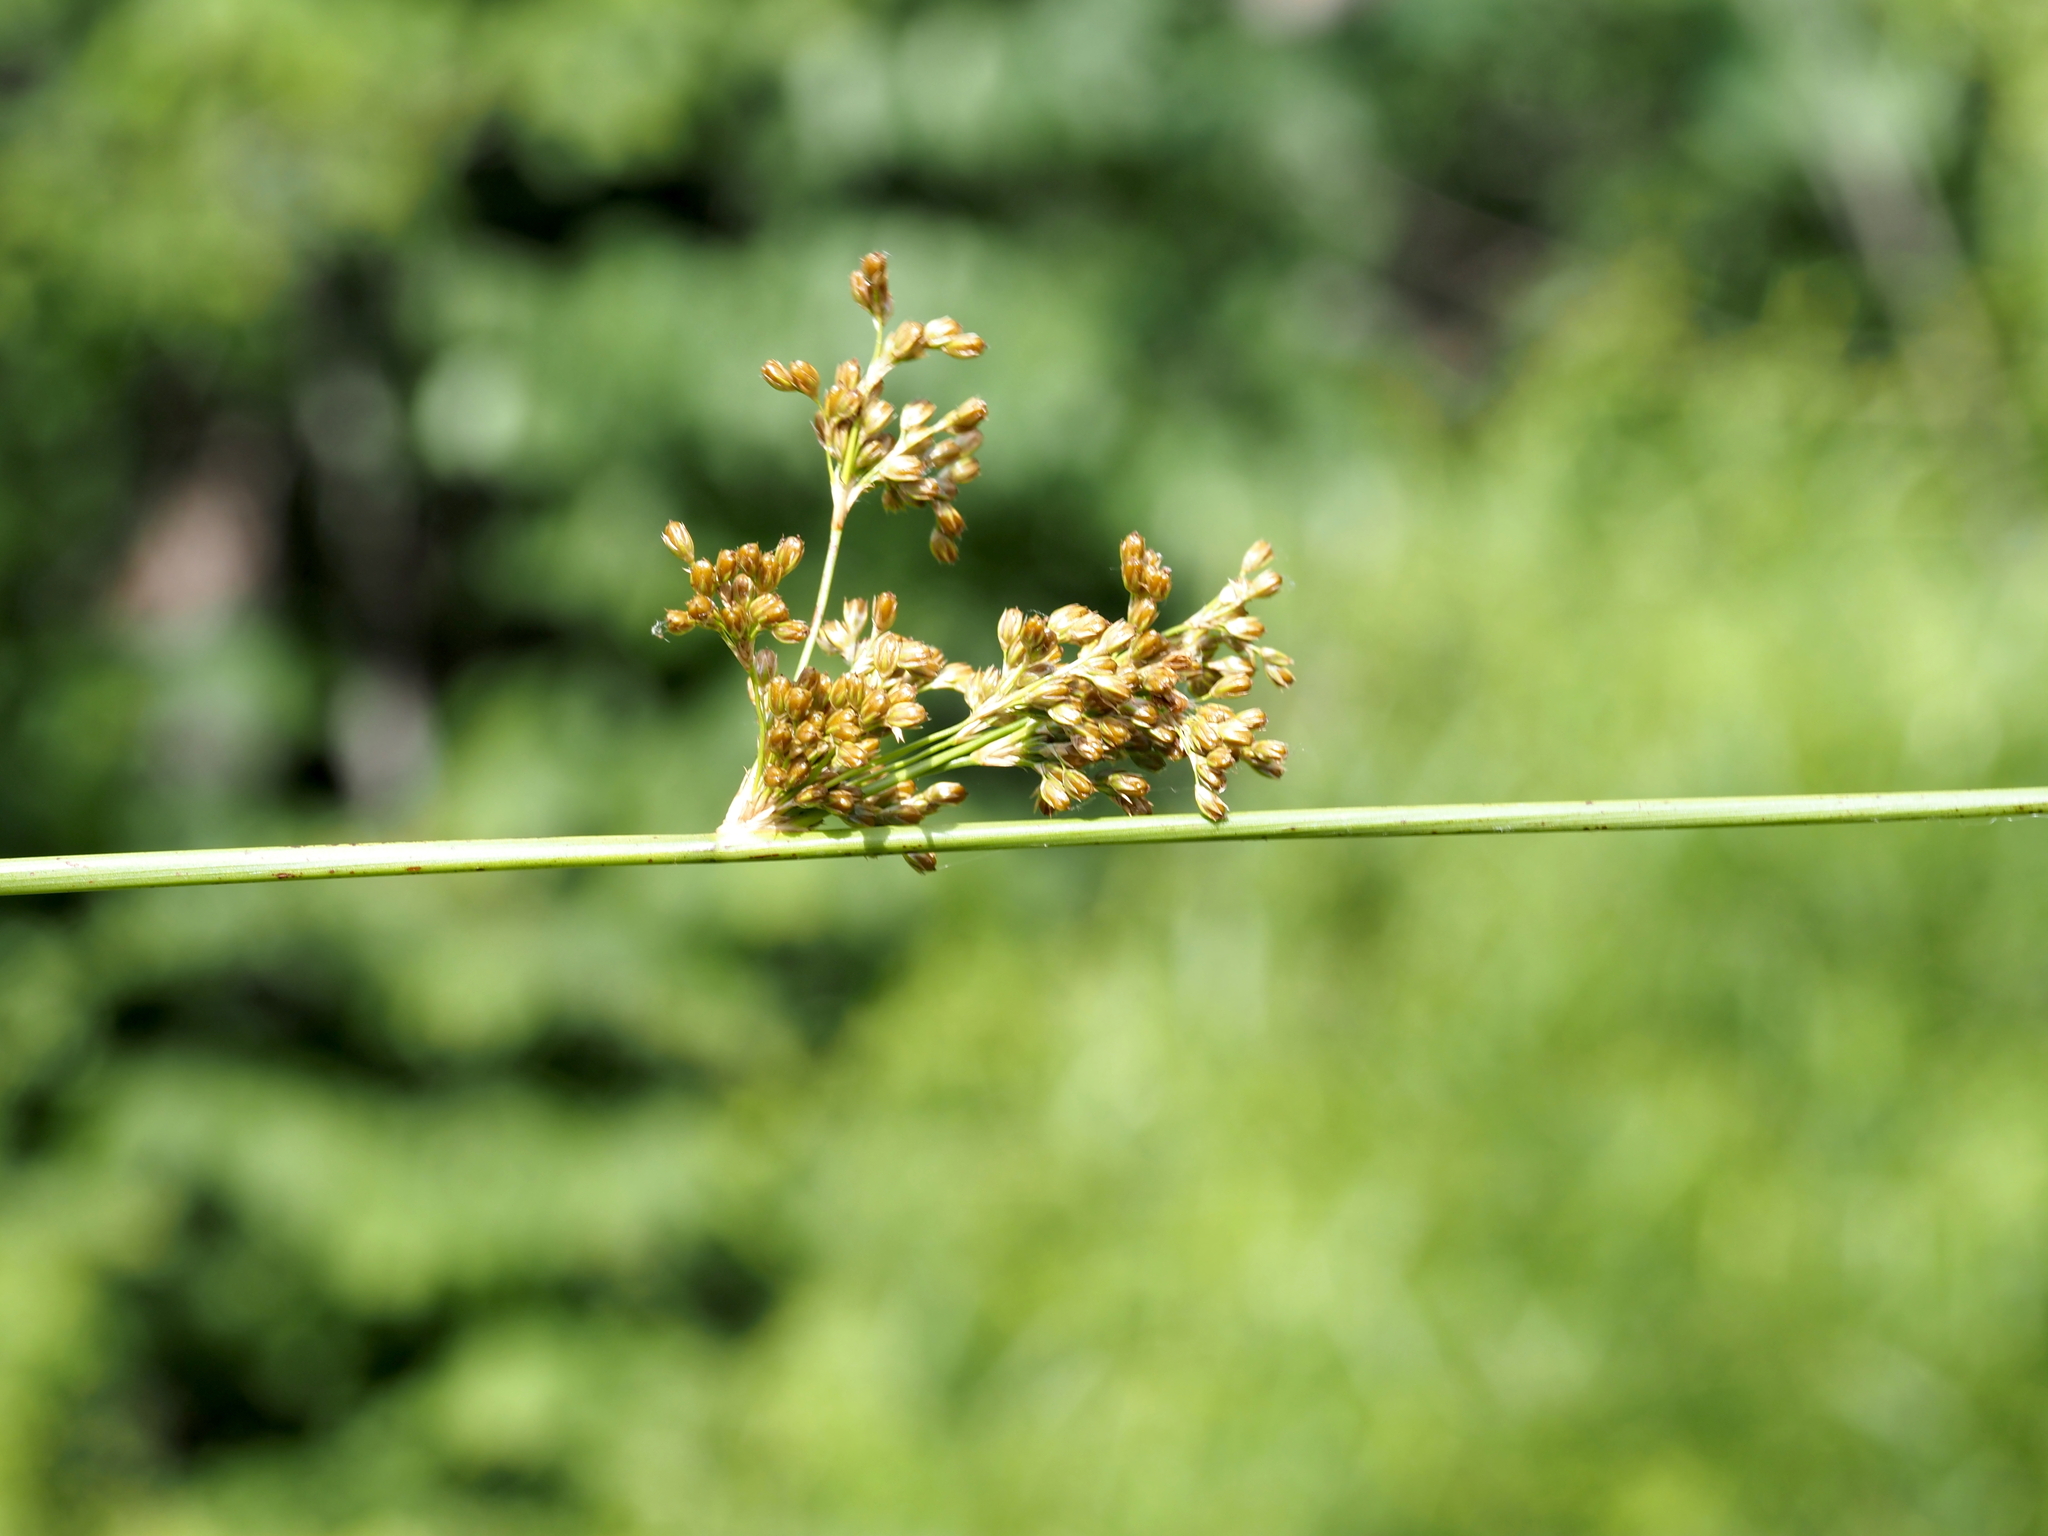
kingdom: Plantae
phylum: Tracheophyta
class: Liliopsida
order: Poales
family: Juncaceae
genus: Juncus
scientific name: Juncus effusus
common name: Soft rush
